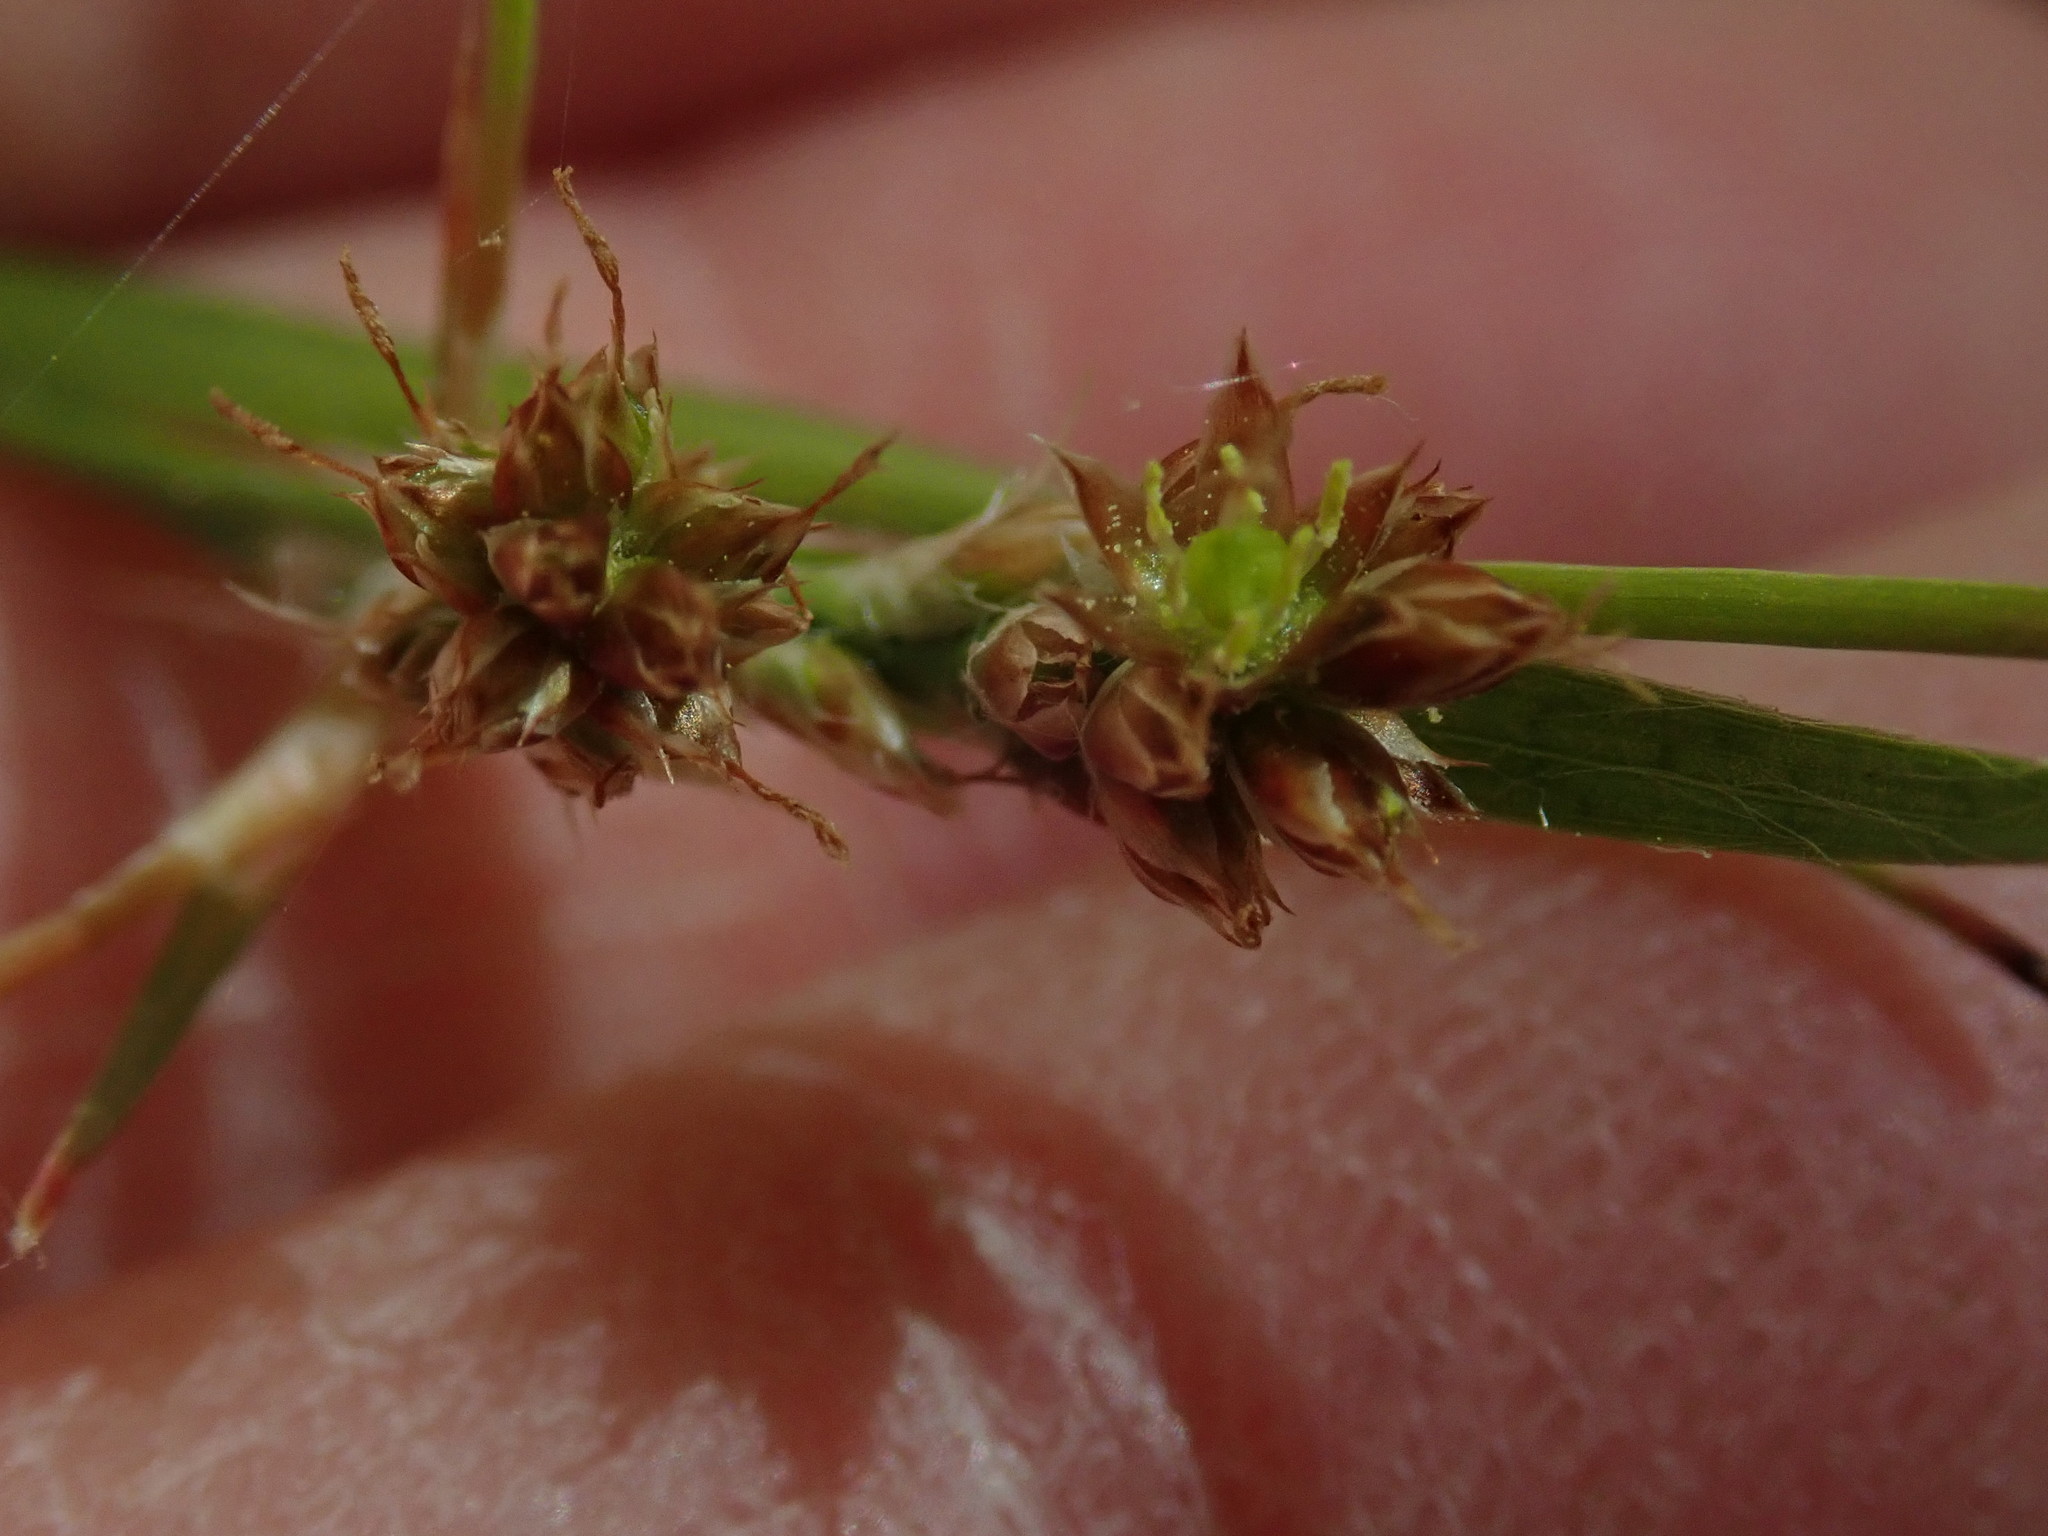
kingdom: Plantae
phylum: Tracheophyta
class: Liliopsida
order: Poales
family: Juncaceae
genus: Luzula
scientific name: Luzula multiflora
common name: Heath wood-rush
